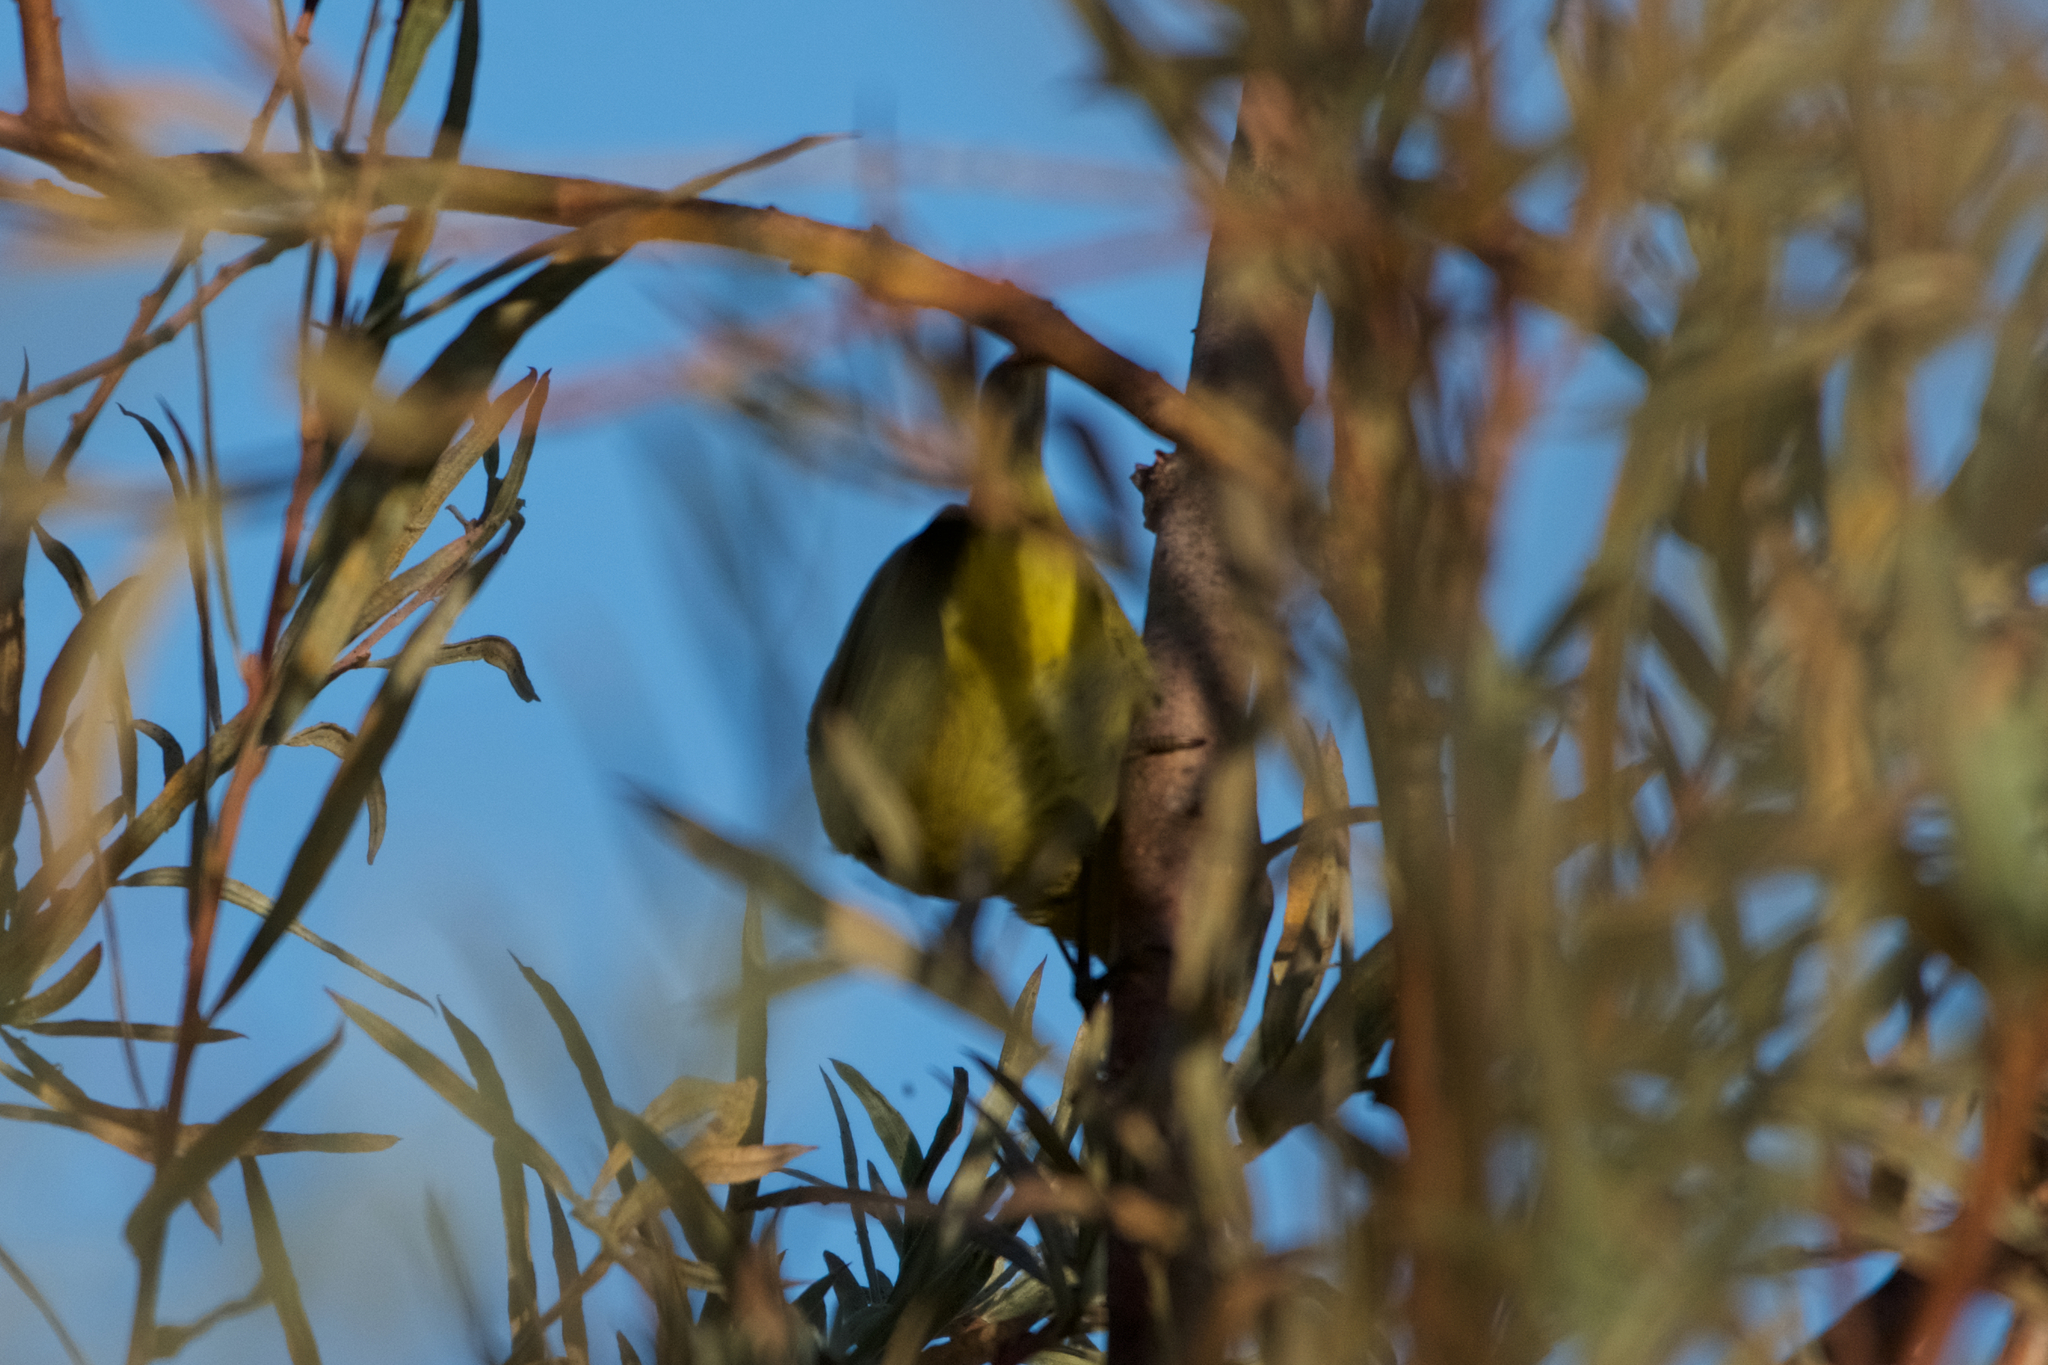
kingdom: Animalia
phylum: Chordata
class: Aves
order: Passeriformes
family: Parulidae
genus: Leiothlypis
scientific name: Leiothlypis celata
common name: Orange-crowned warbler
